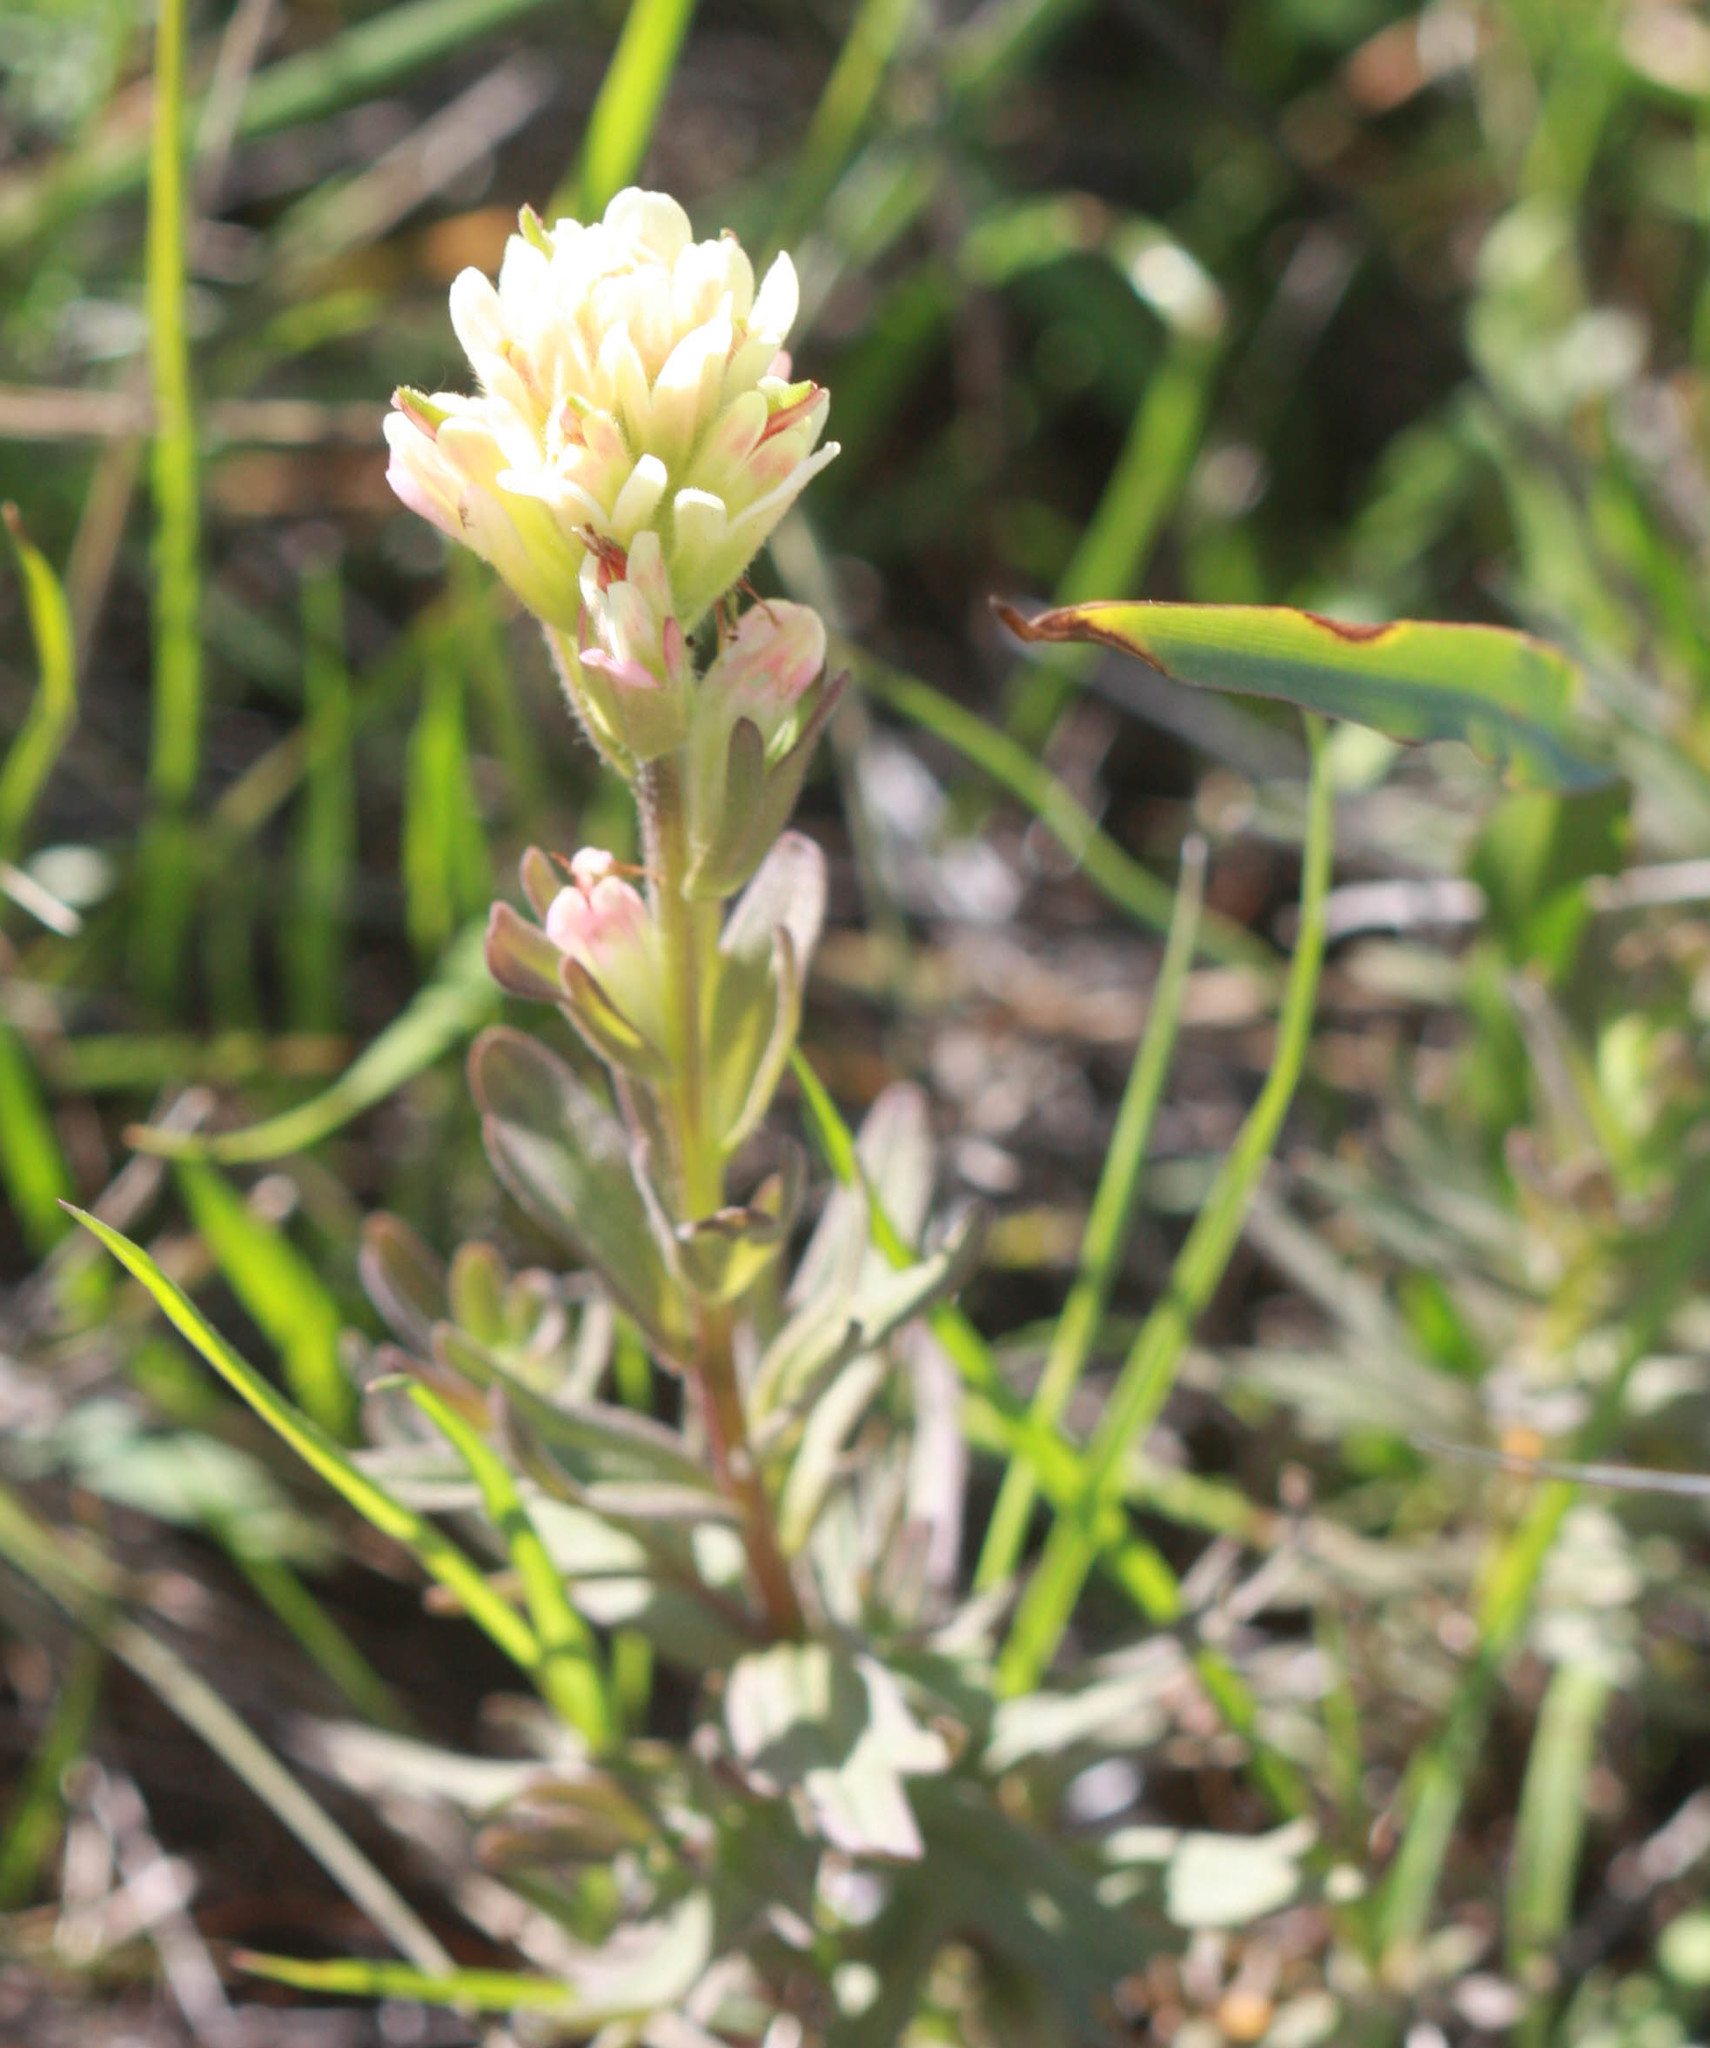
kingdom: Plantae
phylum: Tracheophyta
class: Magnoliopsida
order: Lamiales
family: Orobanchaceae
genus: Castilleja
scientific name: Castilleja affinis
